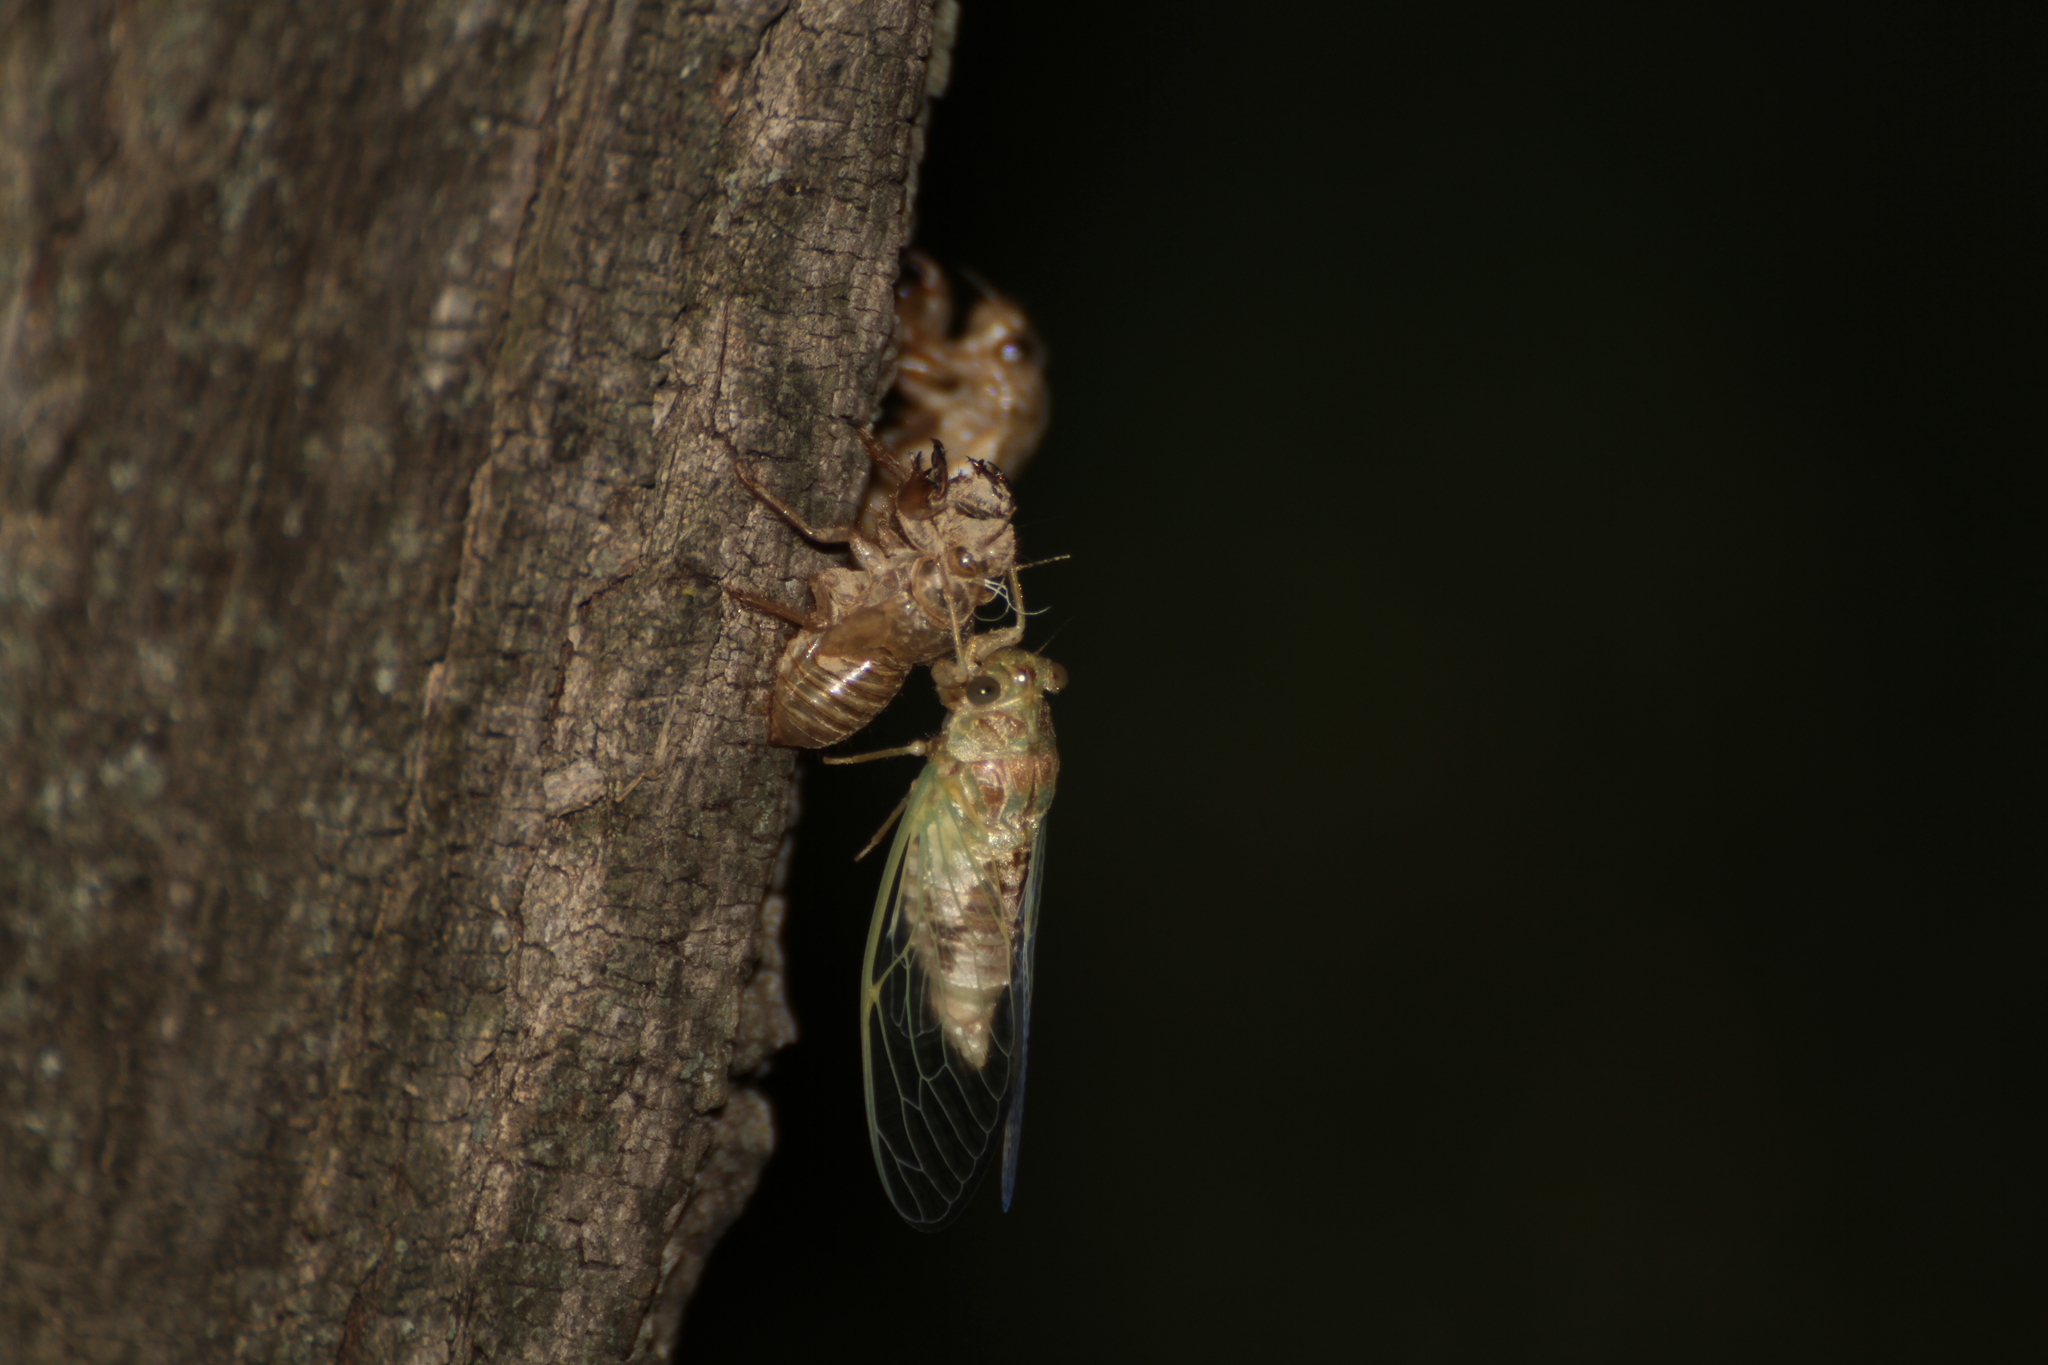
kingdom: Animalia
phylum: Arthropoda
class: Insecta
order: Hemiptera
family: Cicadidae
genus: Cicada
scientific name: Cicada orni
